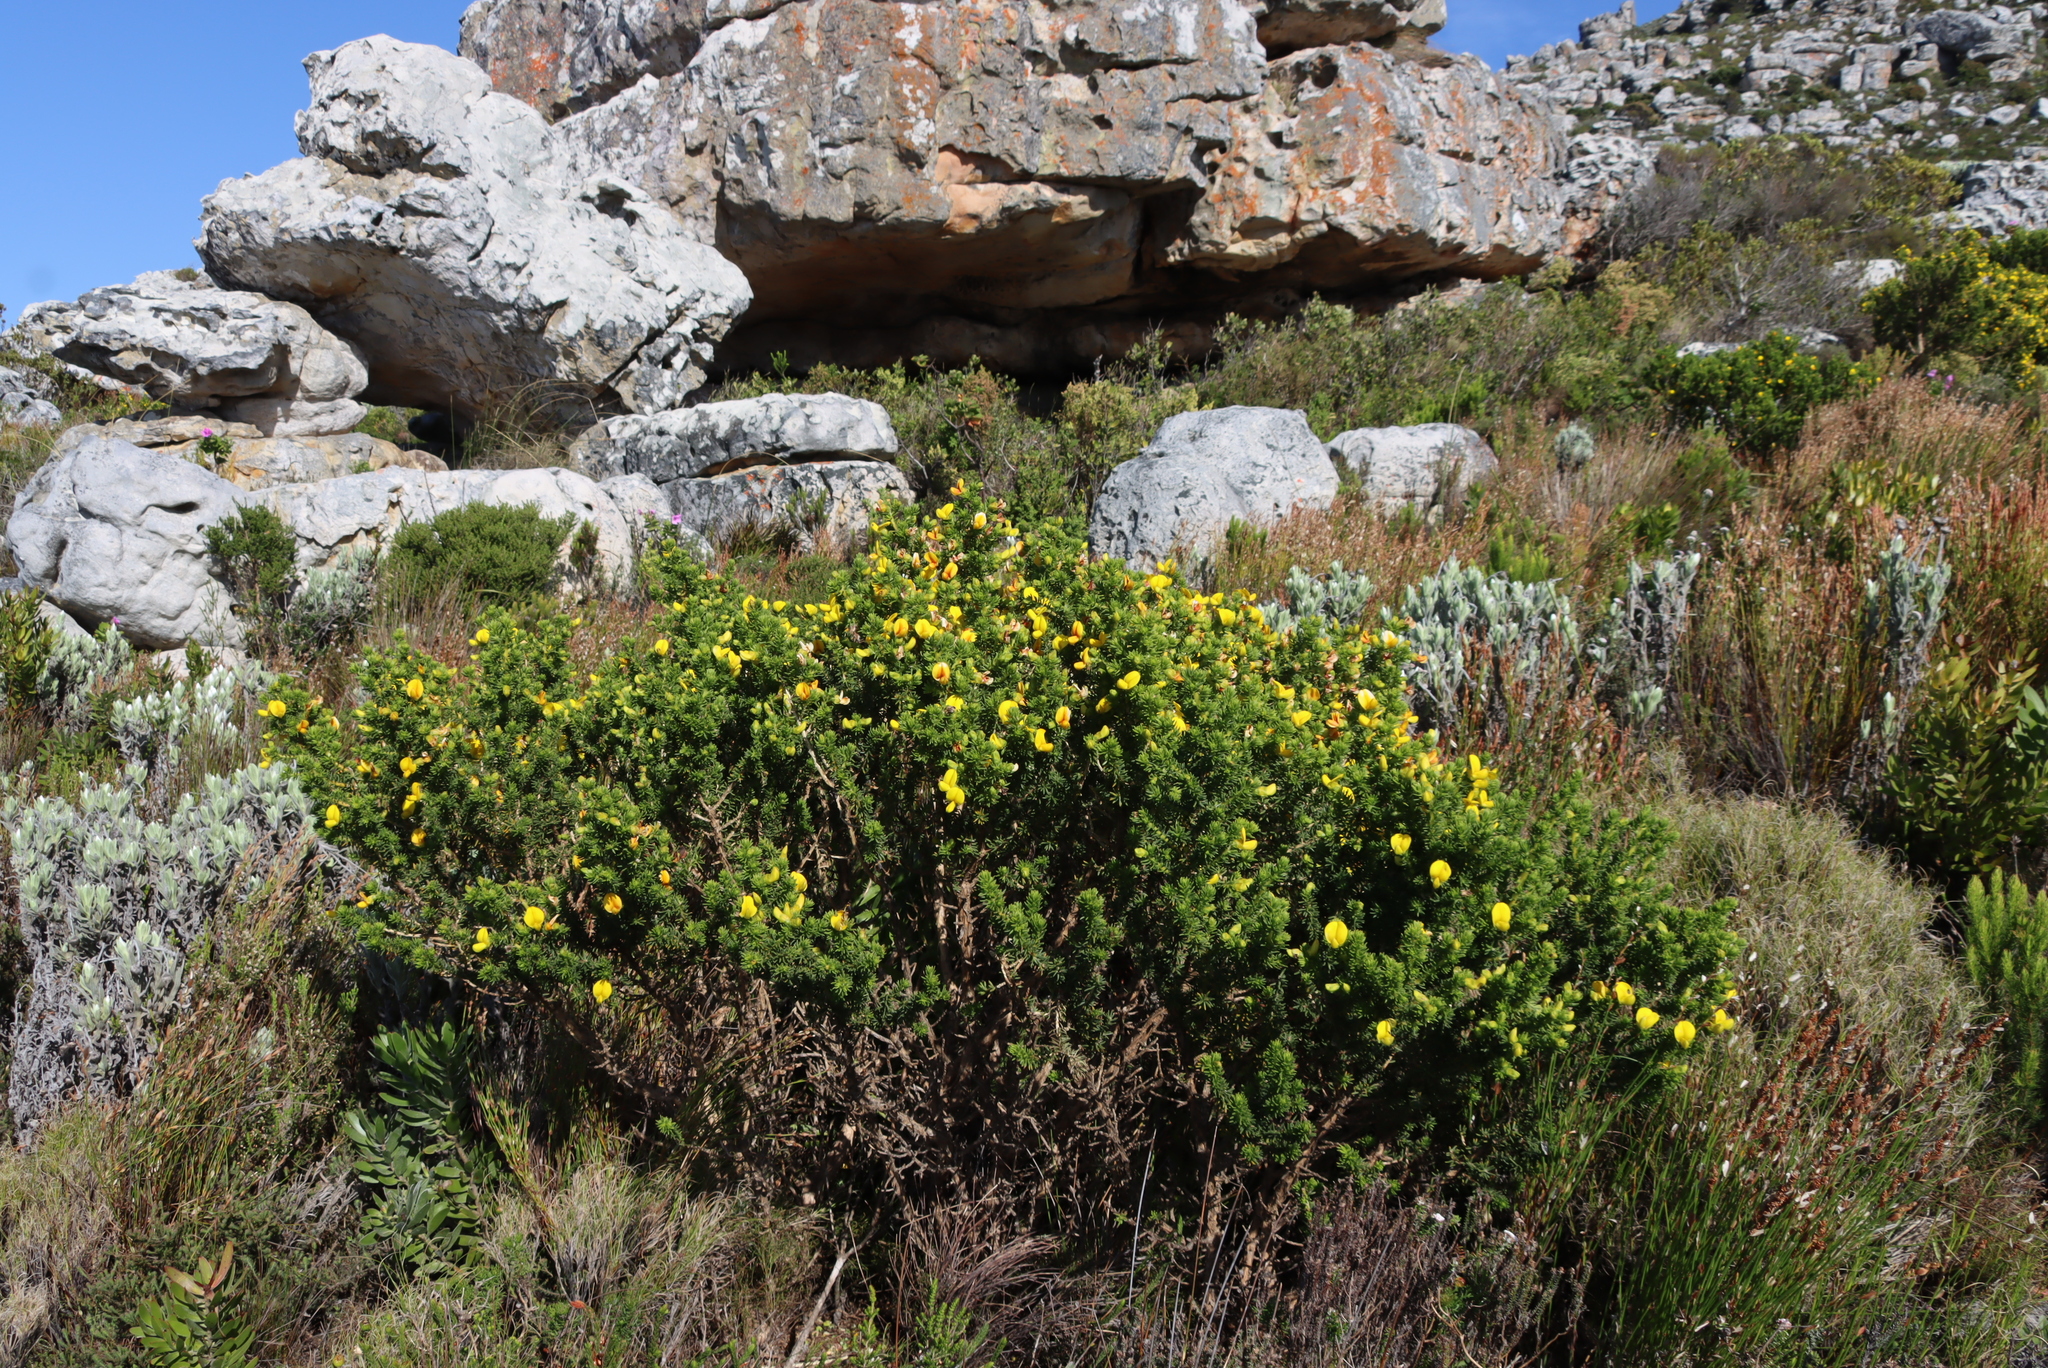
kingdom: Plantae
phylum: Tracheophyta
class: Magnoliopsida
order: Fabales
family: Fabaceae
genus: Aspalathus
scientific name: Aspalathus capensis
